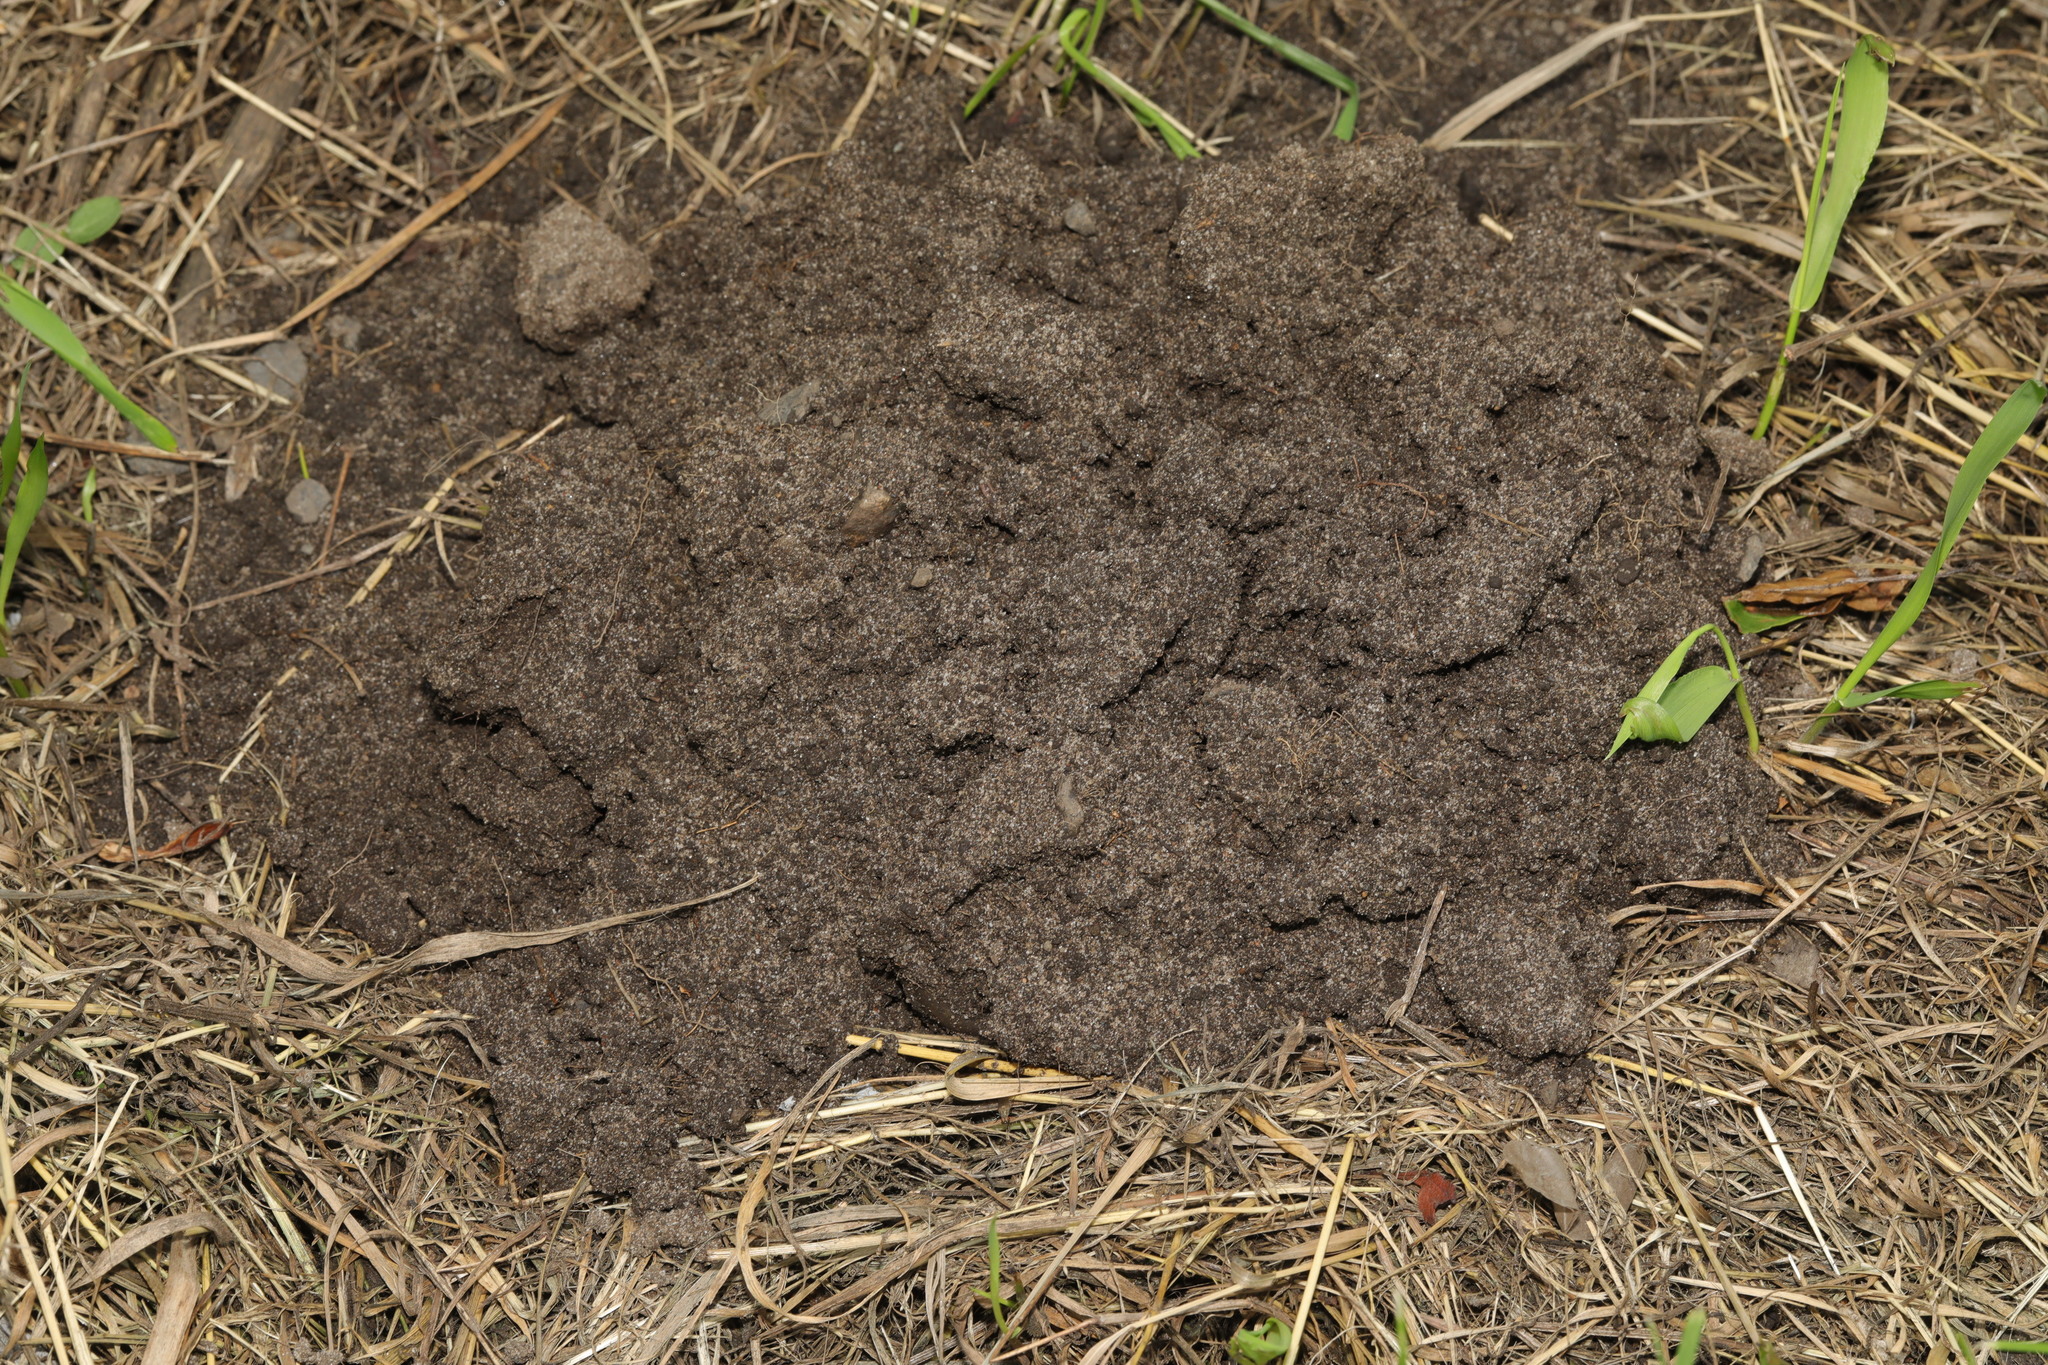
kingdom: Animalia
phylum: Chordata
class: Mammalia
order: Soricomorpha
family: Talpidae
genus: Talpa
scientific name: Talpa europaea
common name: European mole
